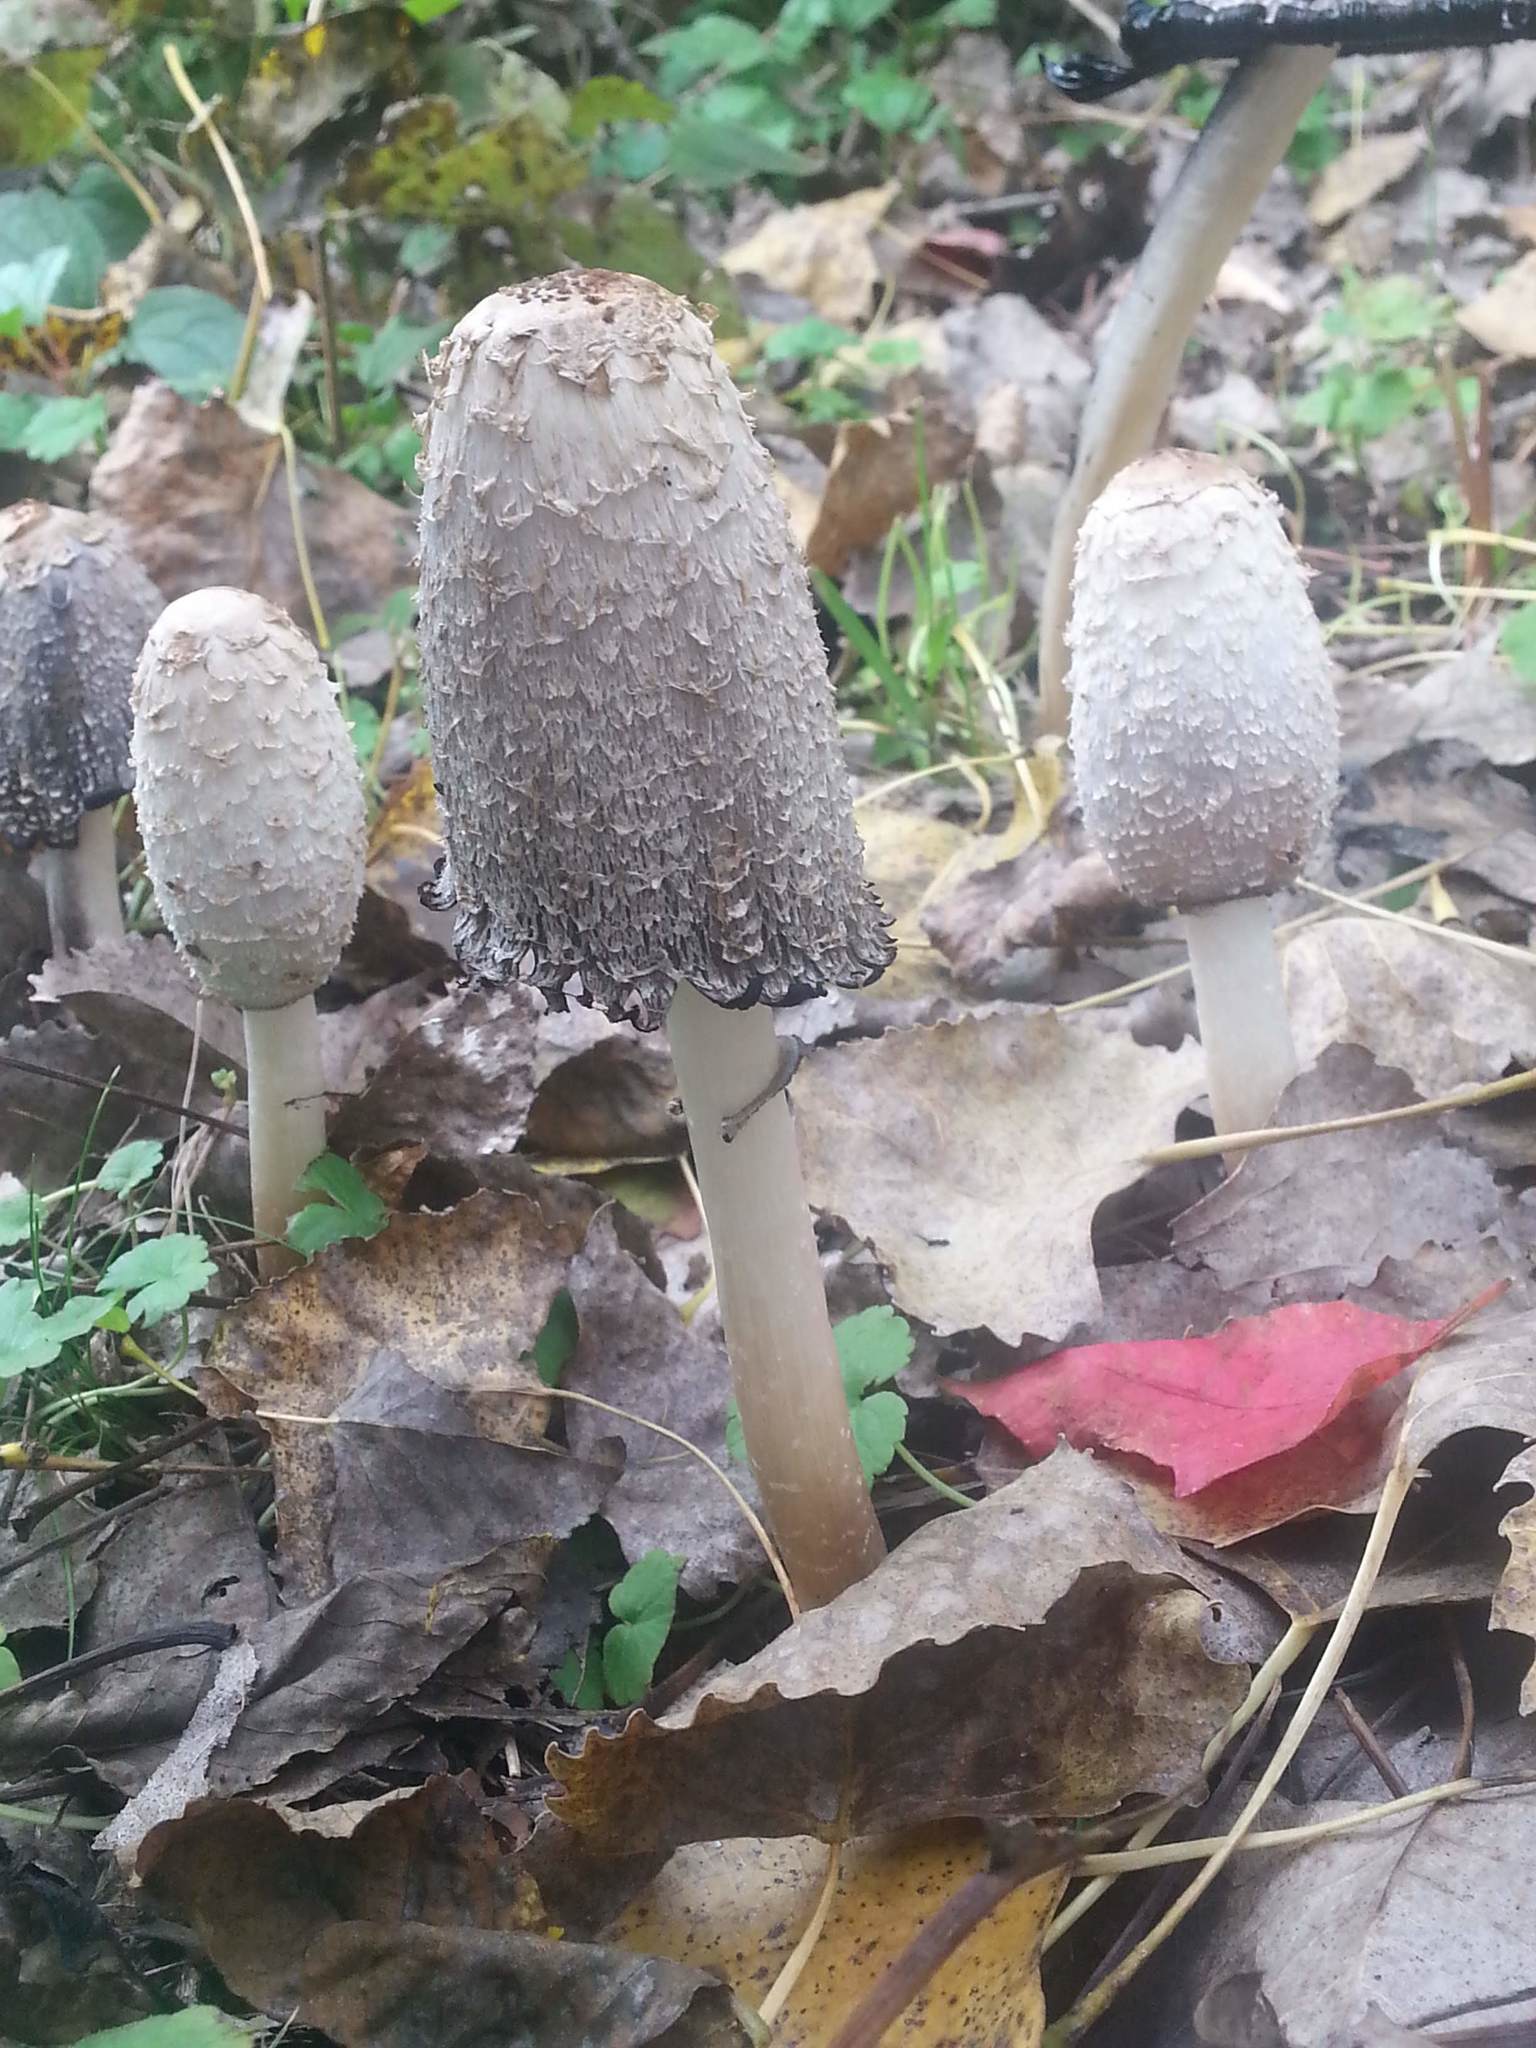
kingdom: Fungi
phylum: Basidiomycota
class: Agaricomycetes
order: Agaricales
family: Agaricaceae
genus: Coprinus
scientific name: Coprinus comatus
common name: Lawyer's wig
